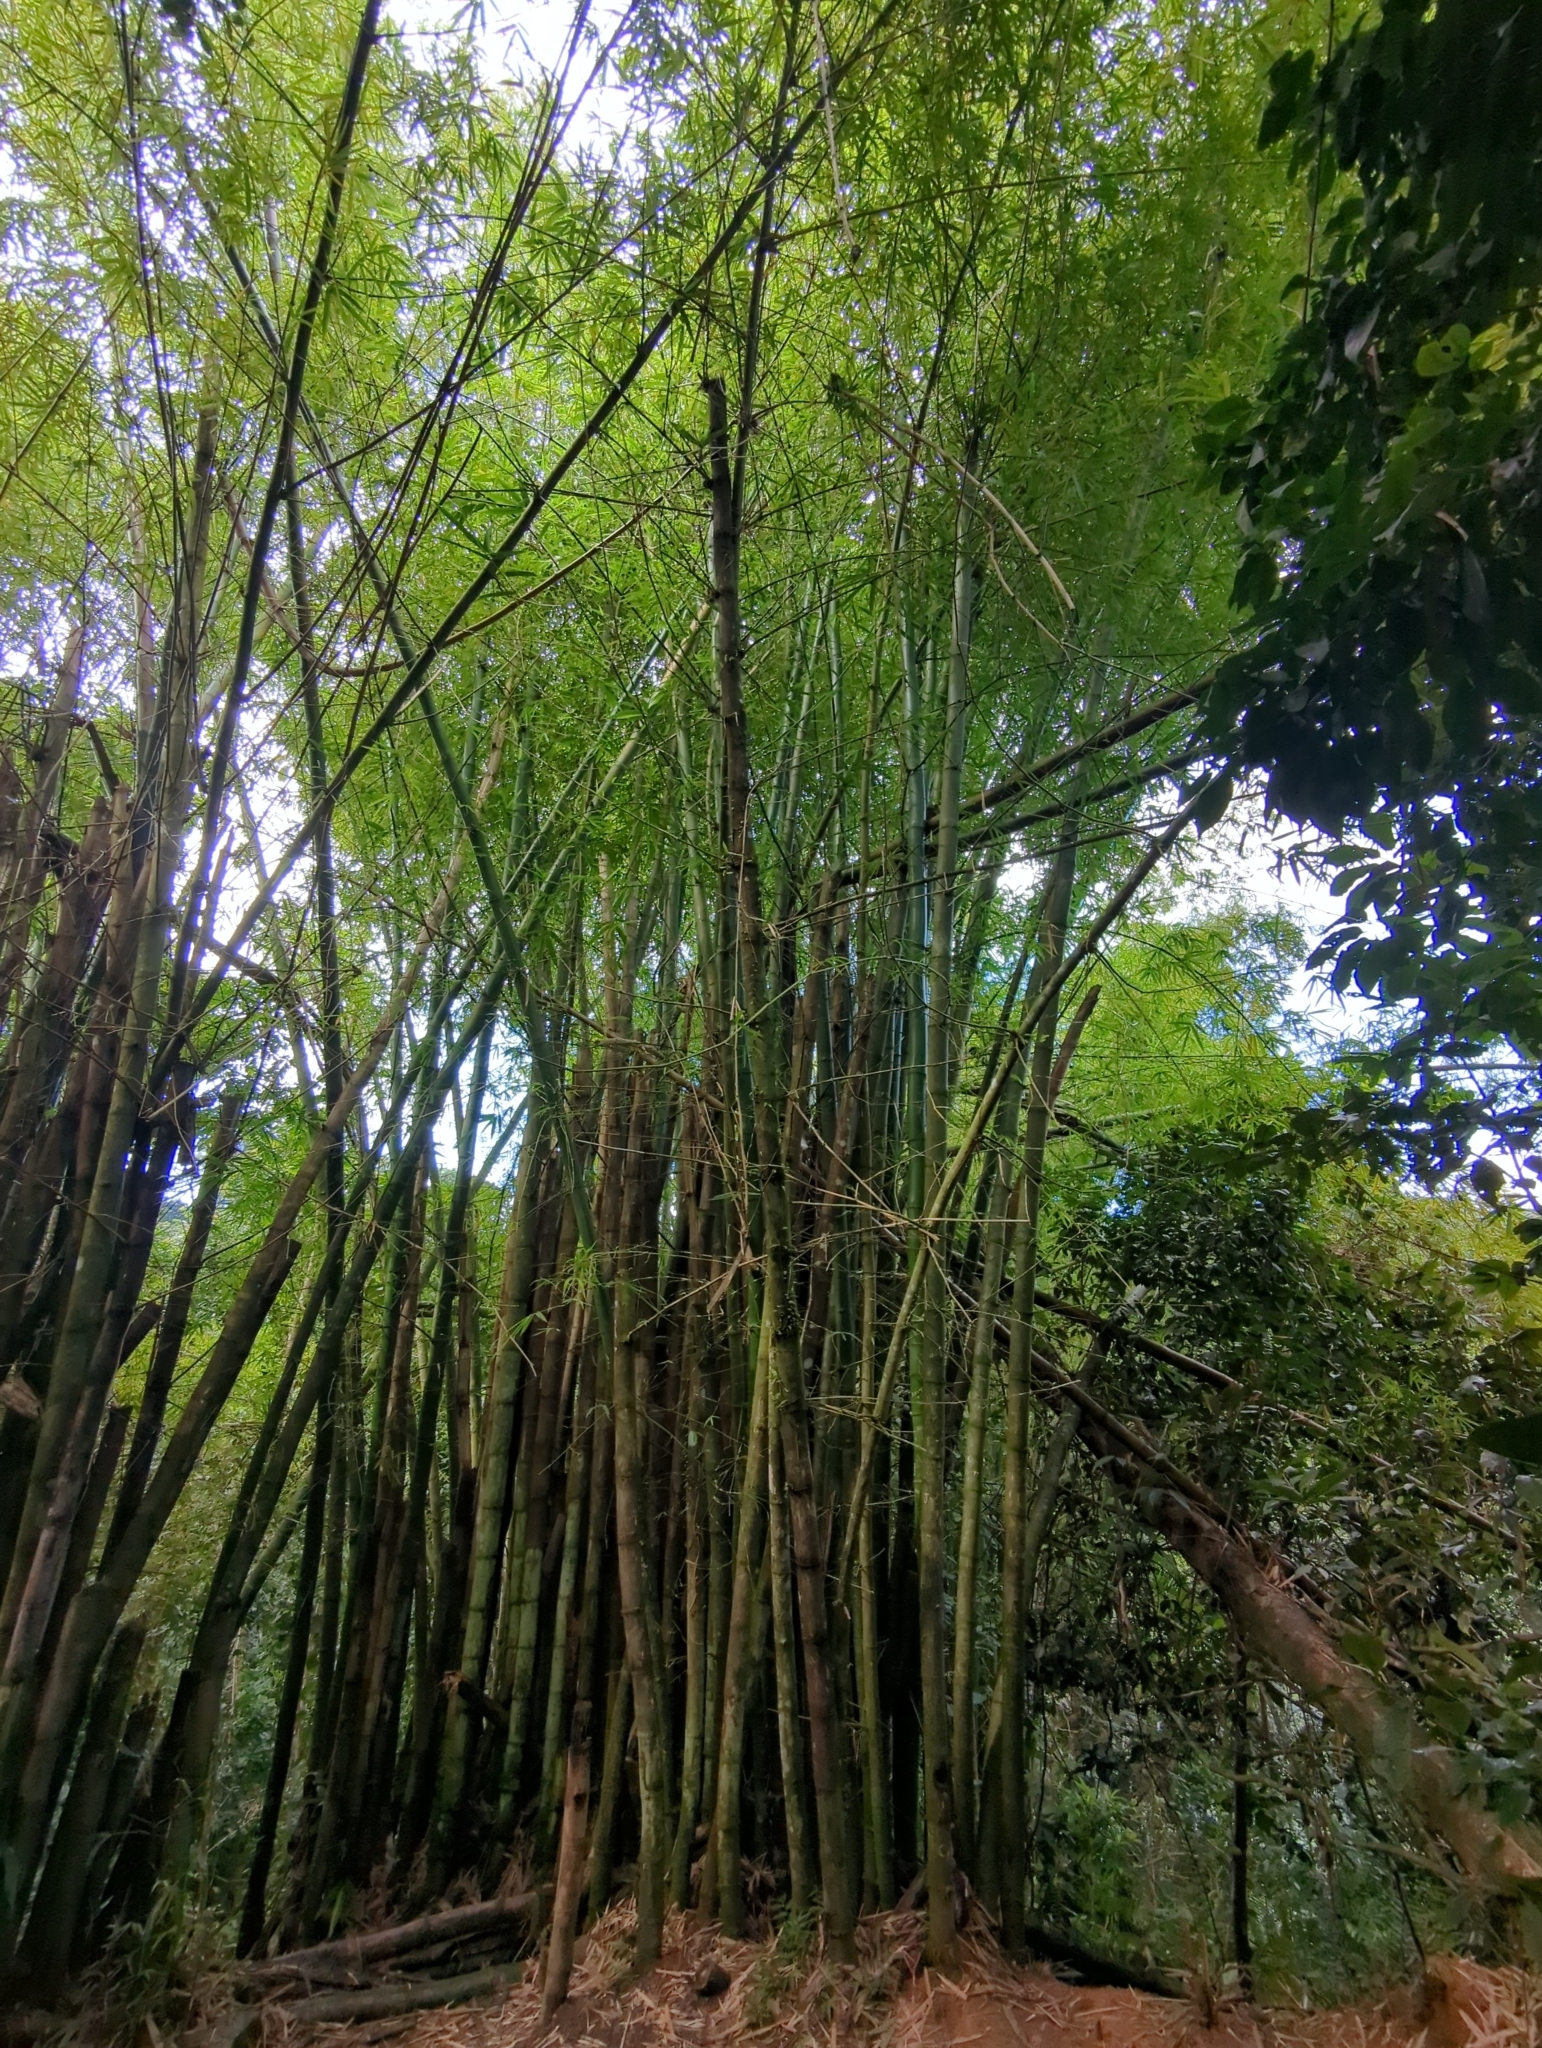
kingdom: Plantae
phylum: Tracheophyta
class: Liliopsida
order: Poales
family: Poaceae
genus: Bambusa
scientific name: Bambusa vulgaris
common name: Common bamboo
